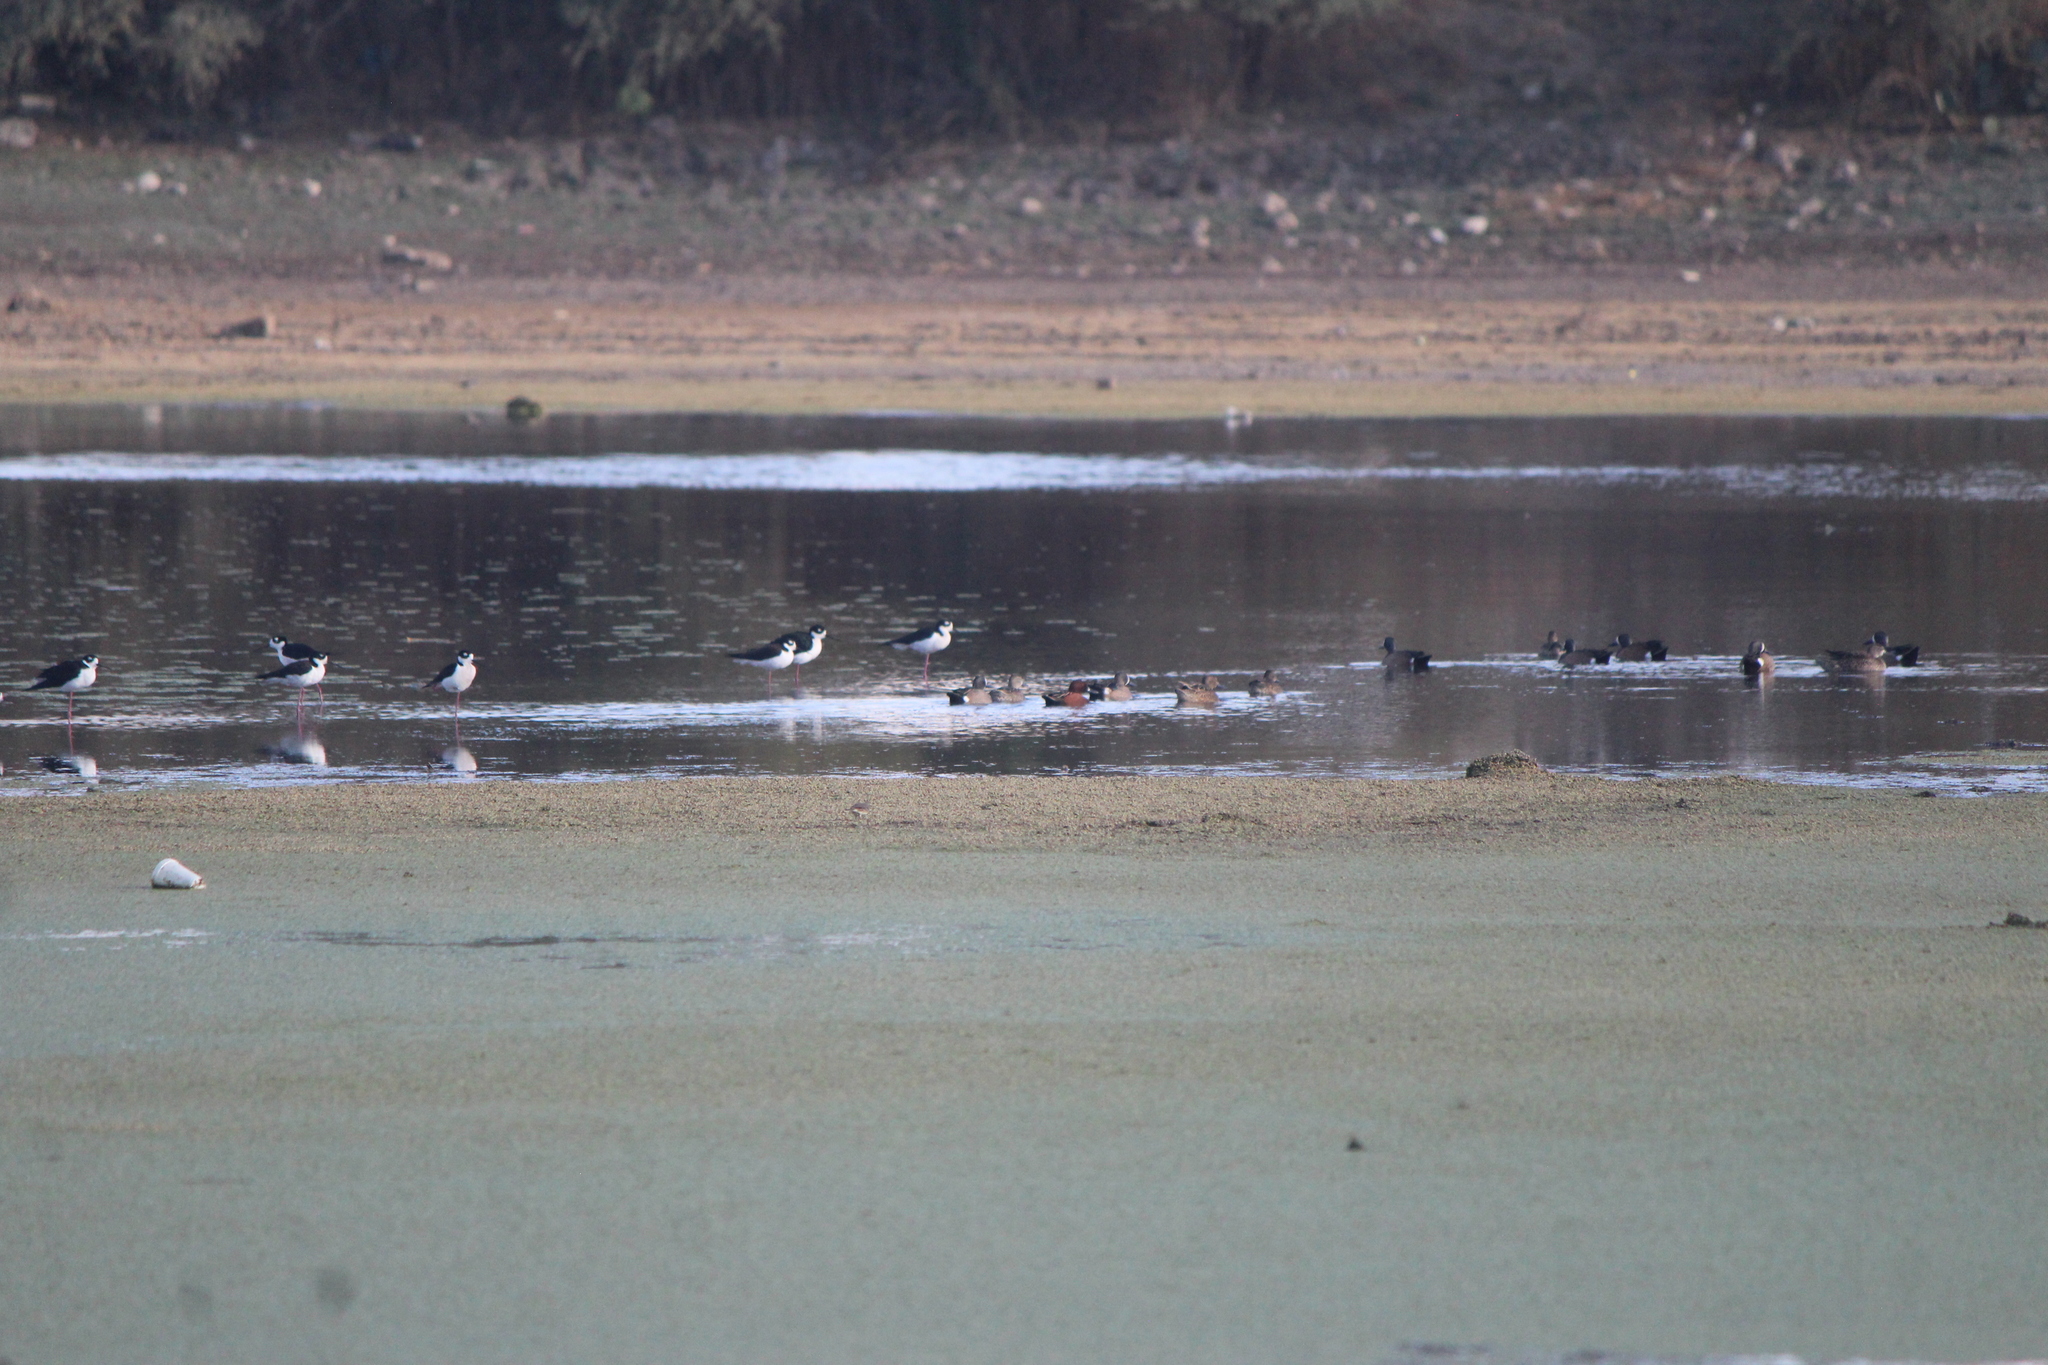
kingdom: Animalia
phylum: Chordata
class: Aves
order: Charadriiformes
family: Recurvirostridae
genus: Himantopus
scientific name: Himantopus mexicanus
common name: Black-necked stilt
